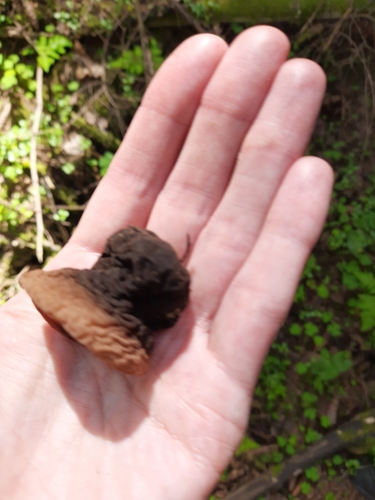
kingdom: Fungi
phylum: Ascomycota
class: Pezizomycetes
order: Pezizales
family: Sarcosomataceae
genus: Sarcosoma
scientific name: Sarcosoma globosum
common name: Charred-pancake cup
